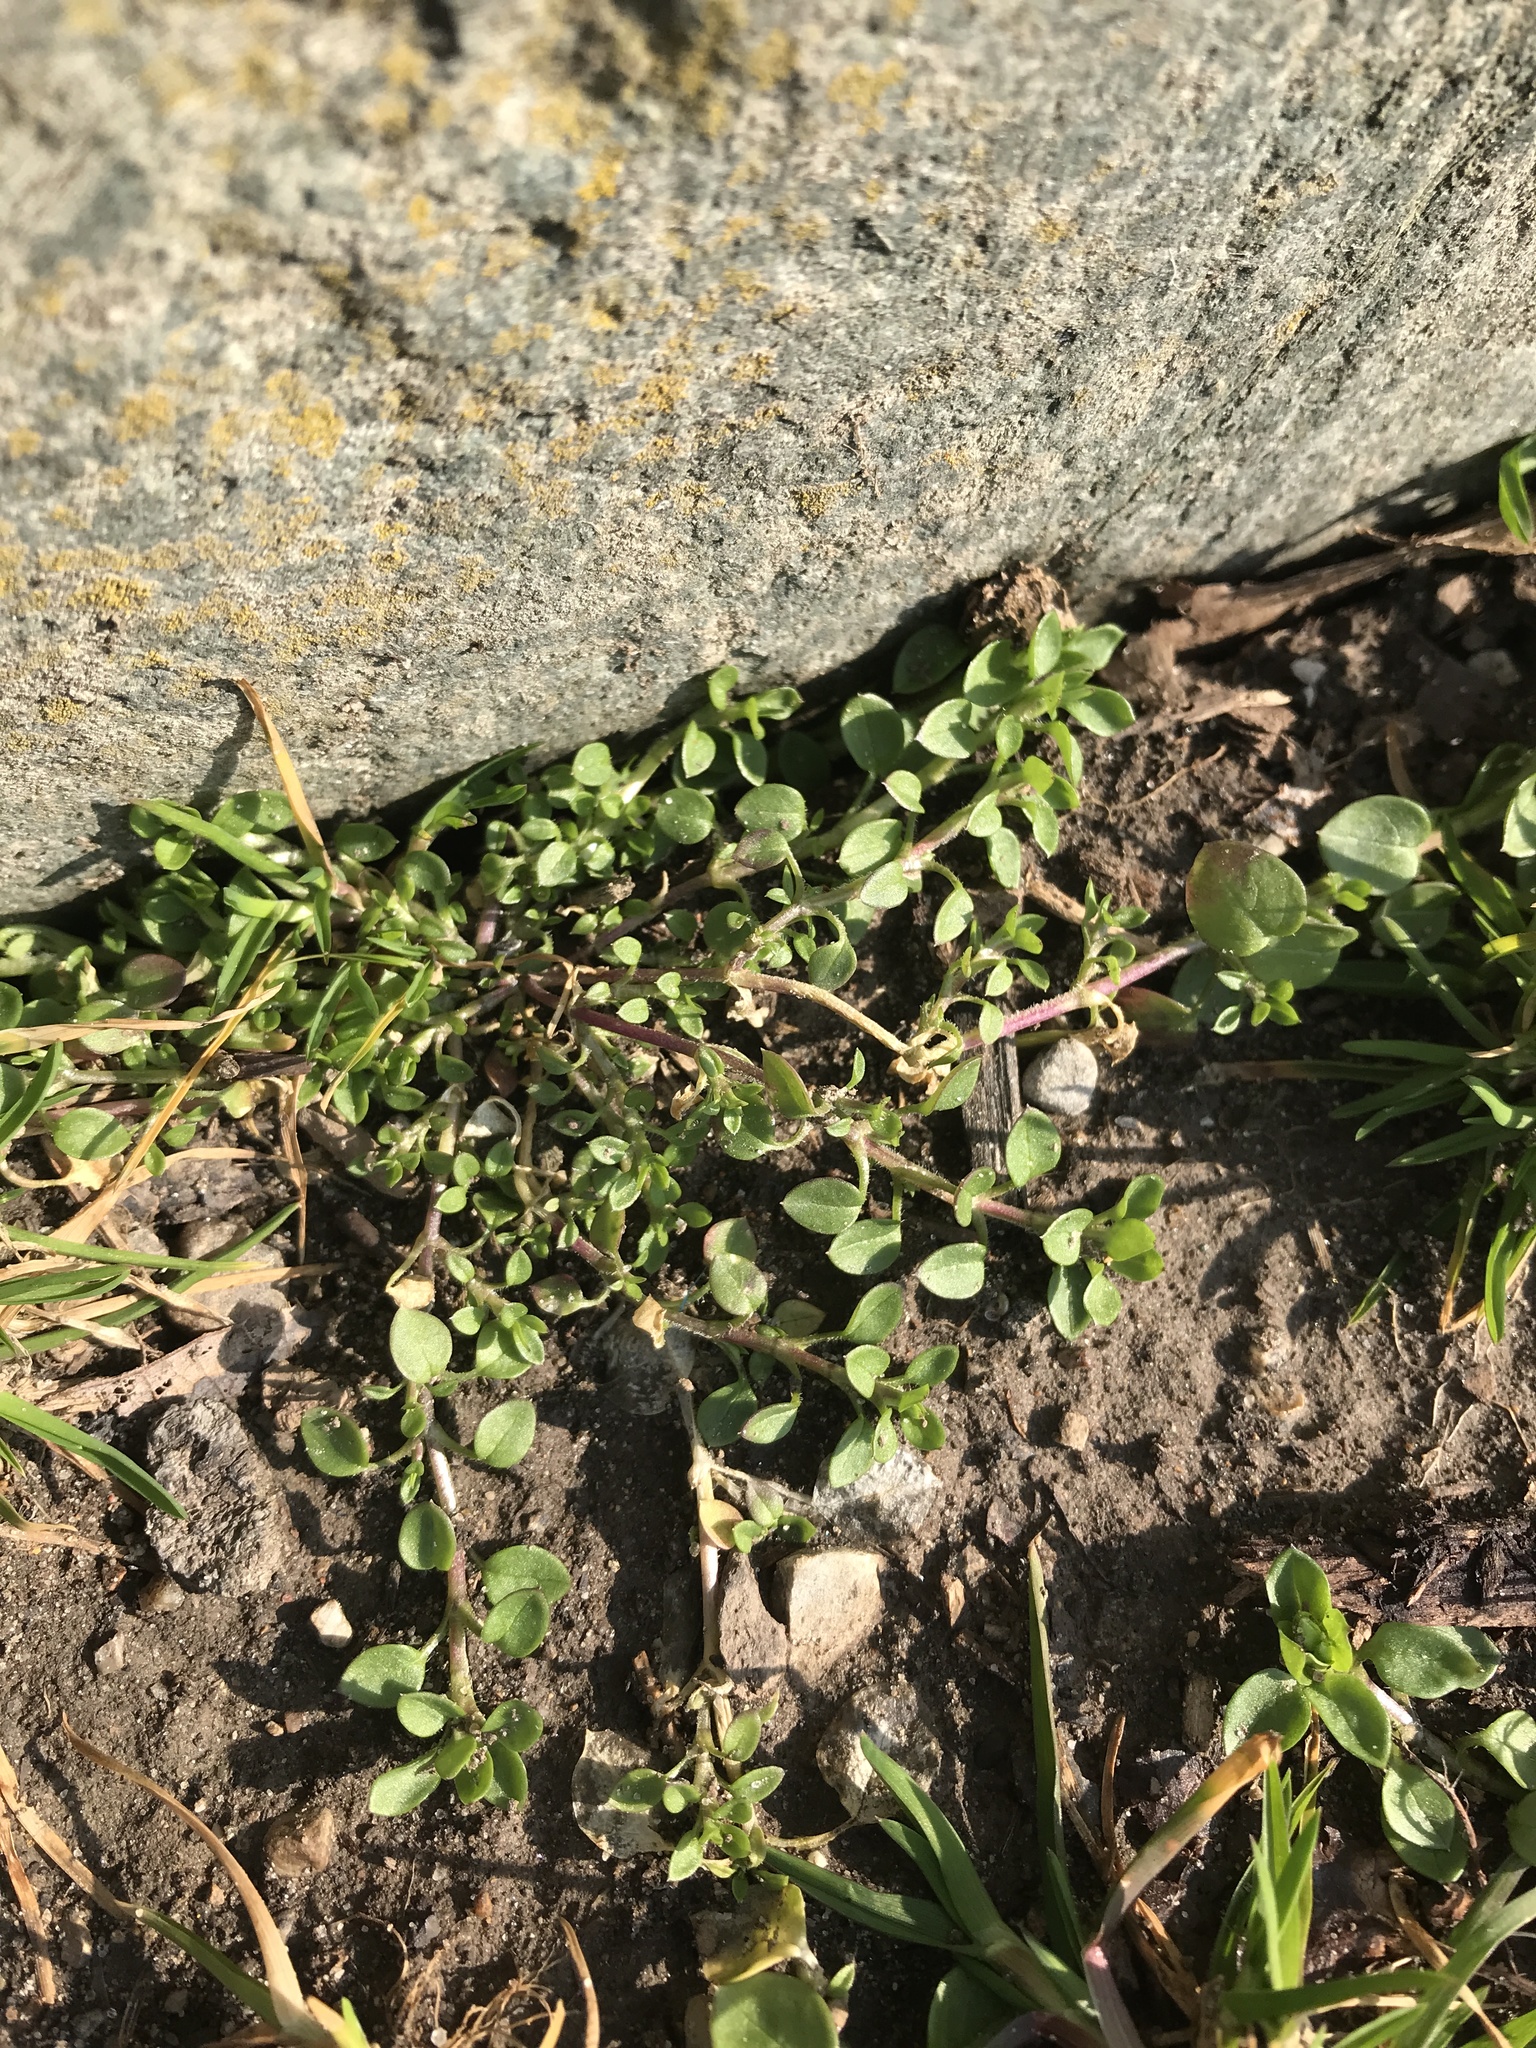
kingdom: Plantae
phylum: Tracheophyta
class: Magnoliopsida
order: Caryophyllales
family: Caryophyllaceae
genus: Stellaria
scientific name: Stellaria media
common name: Common chickweed
